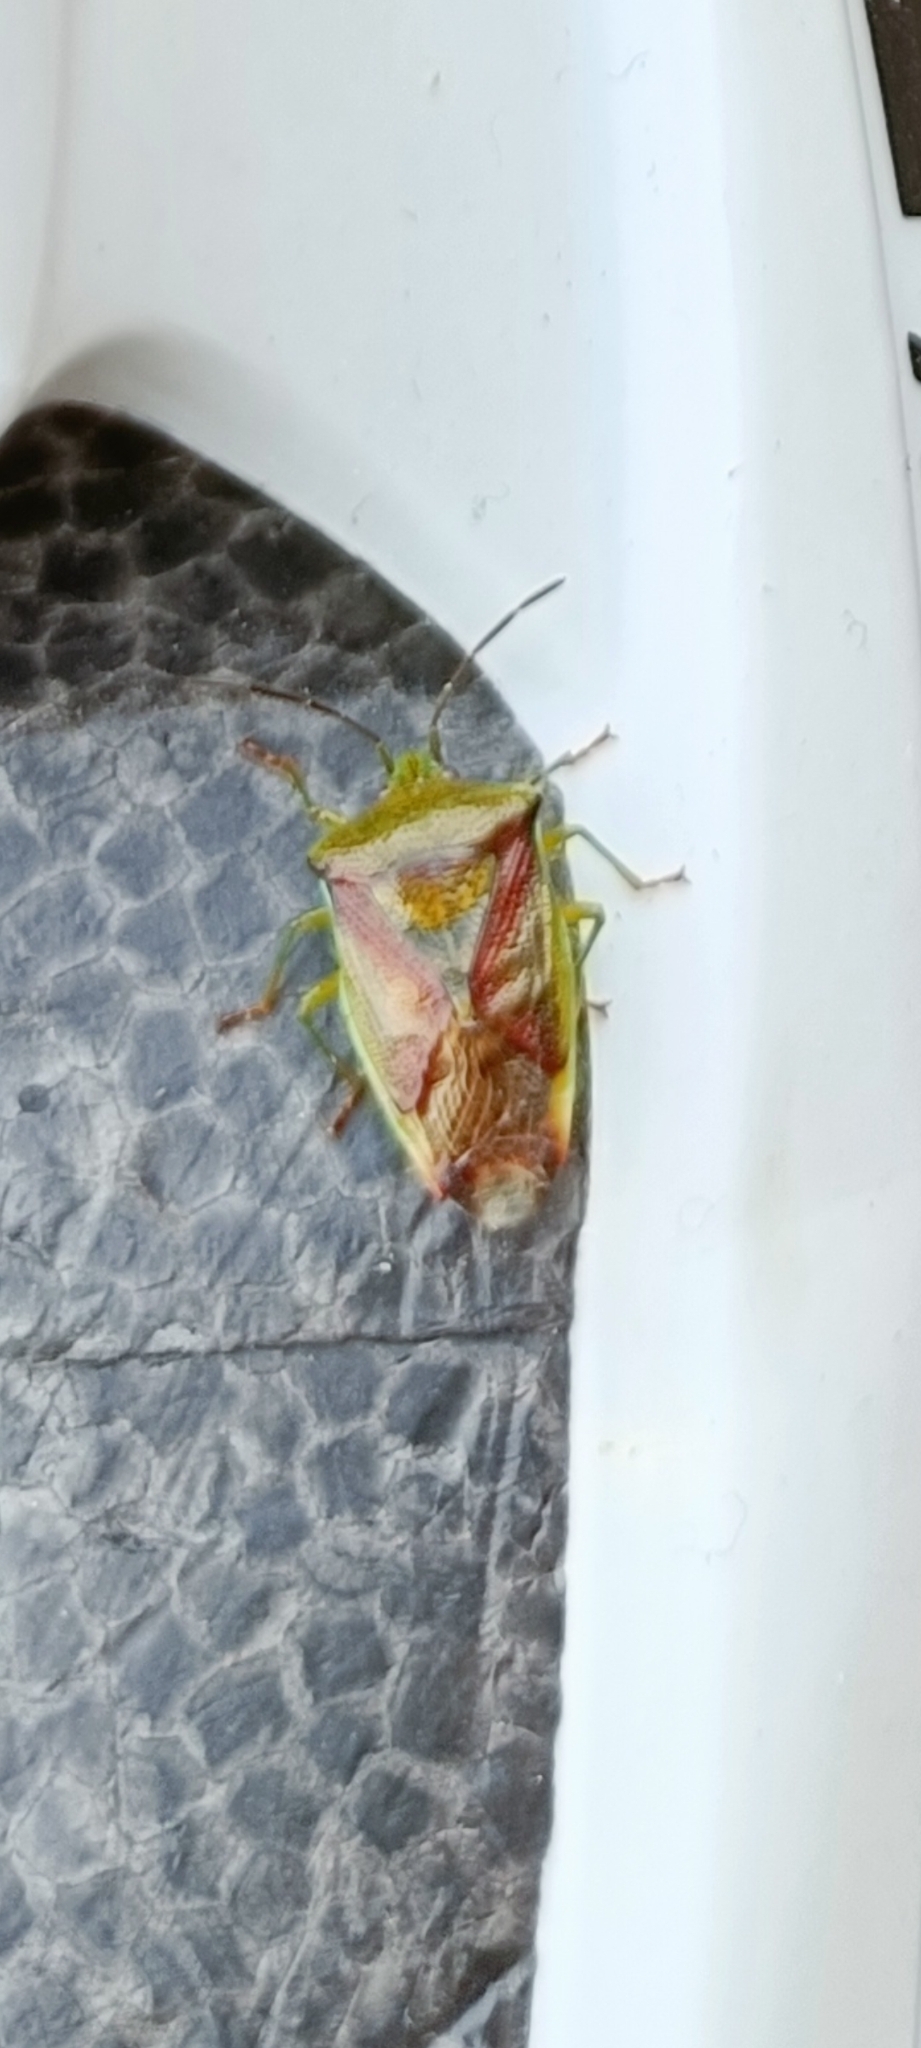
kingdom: Animalia
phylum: Arthropoda
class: Insecta
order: Hemiptera
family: Acanthosomatidae
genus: Elasmostethus
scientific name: Elasmostethus interstinctus
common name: Birch shieldbug
